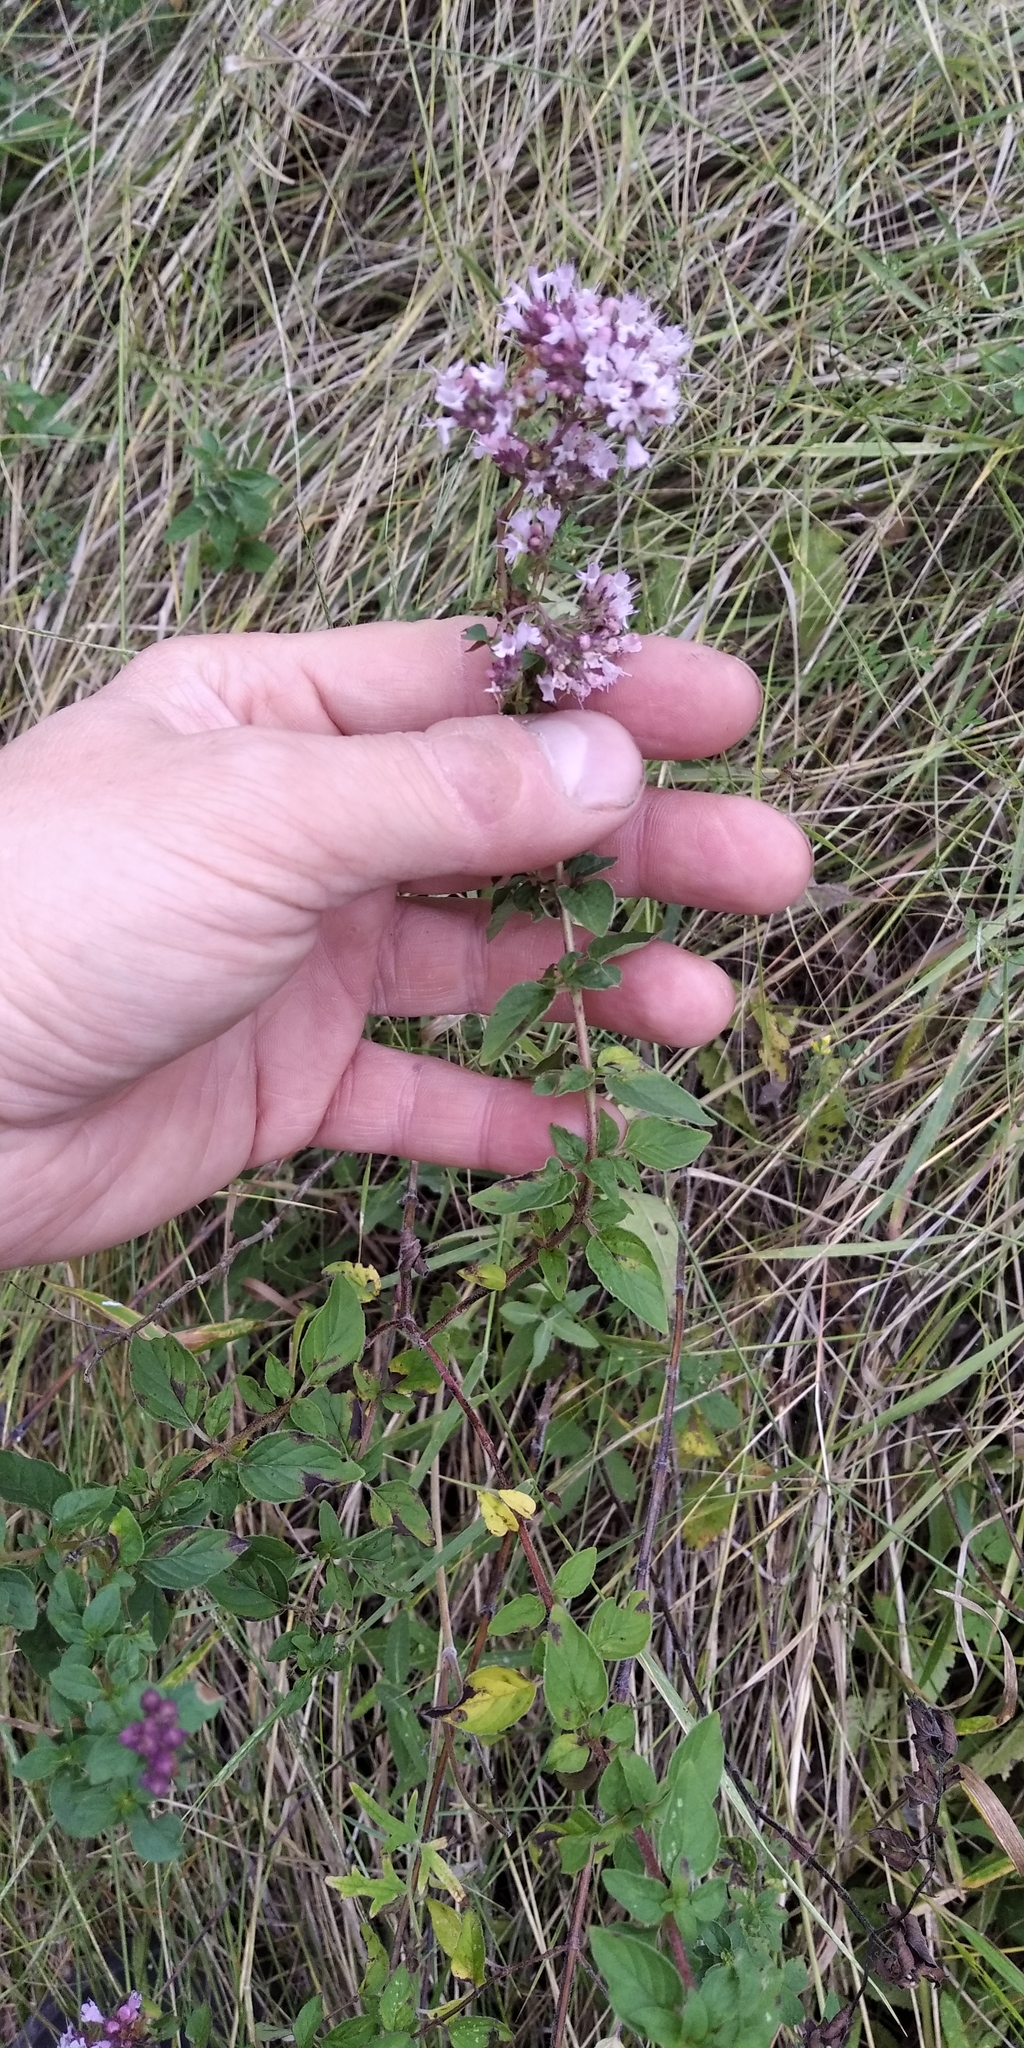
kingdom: Plantae
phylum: Tracheophyta
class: Magnoliopsida
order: Lamiales
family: Lamiaceae
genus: Origanum
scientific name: Origanum vulgare
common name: Wild marjoram
